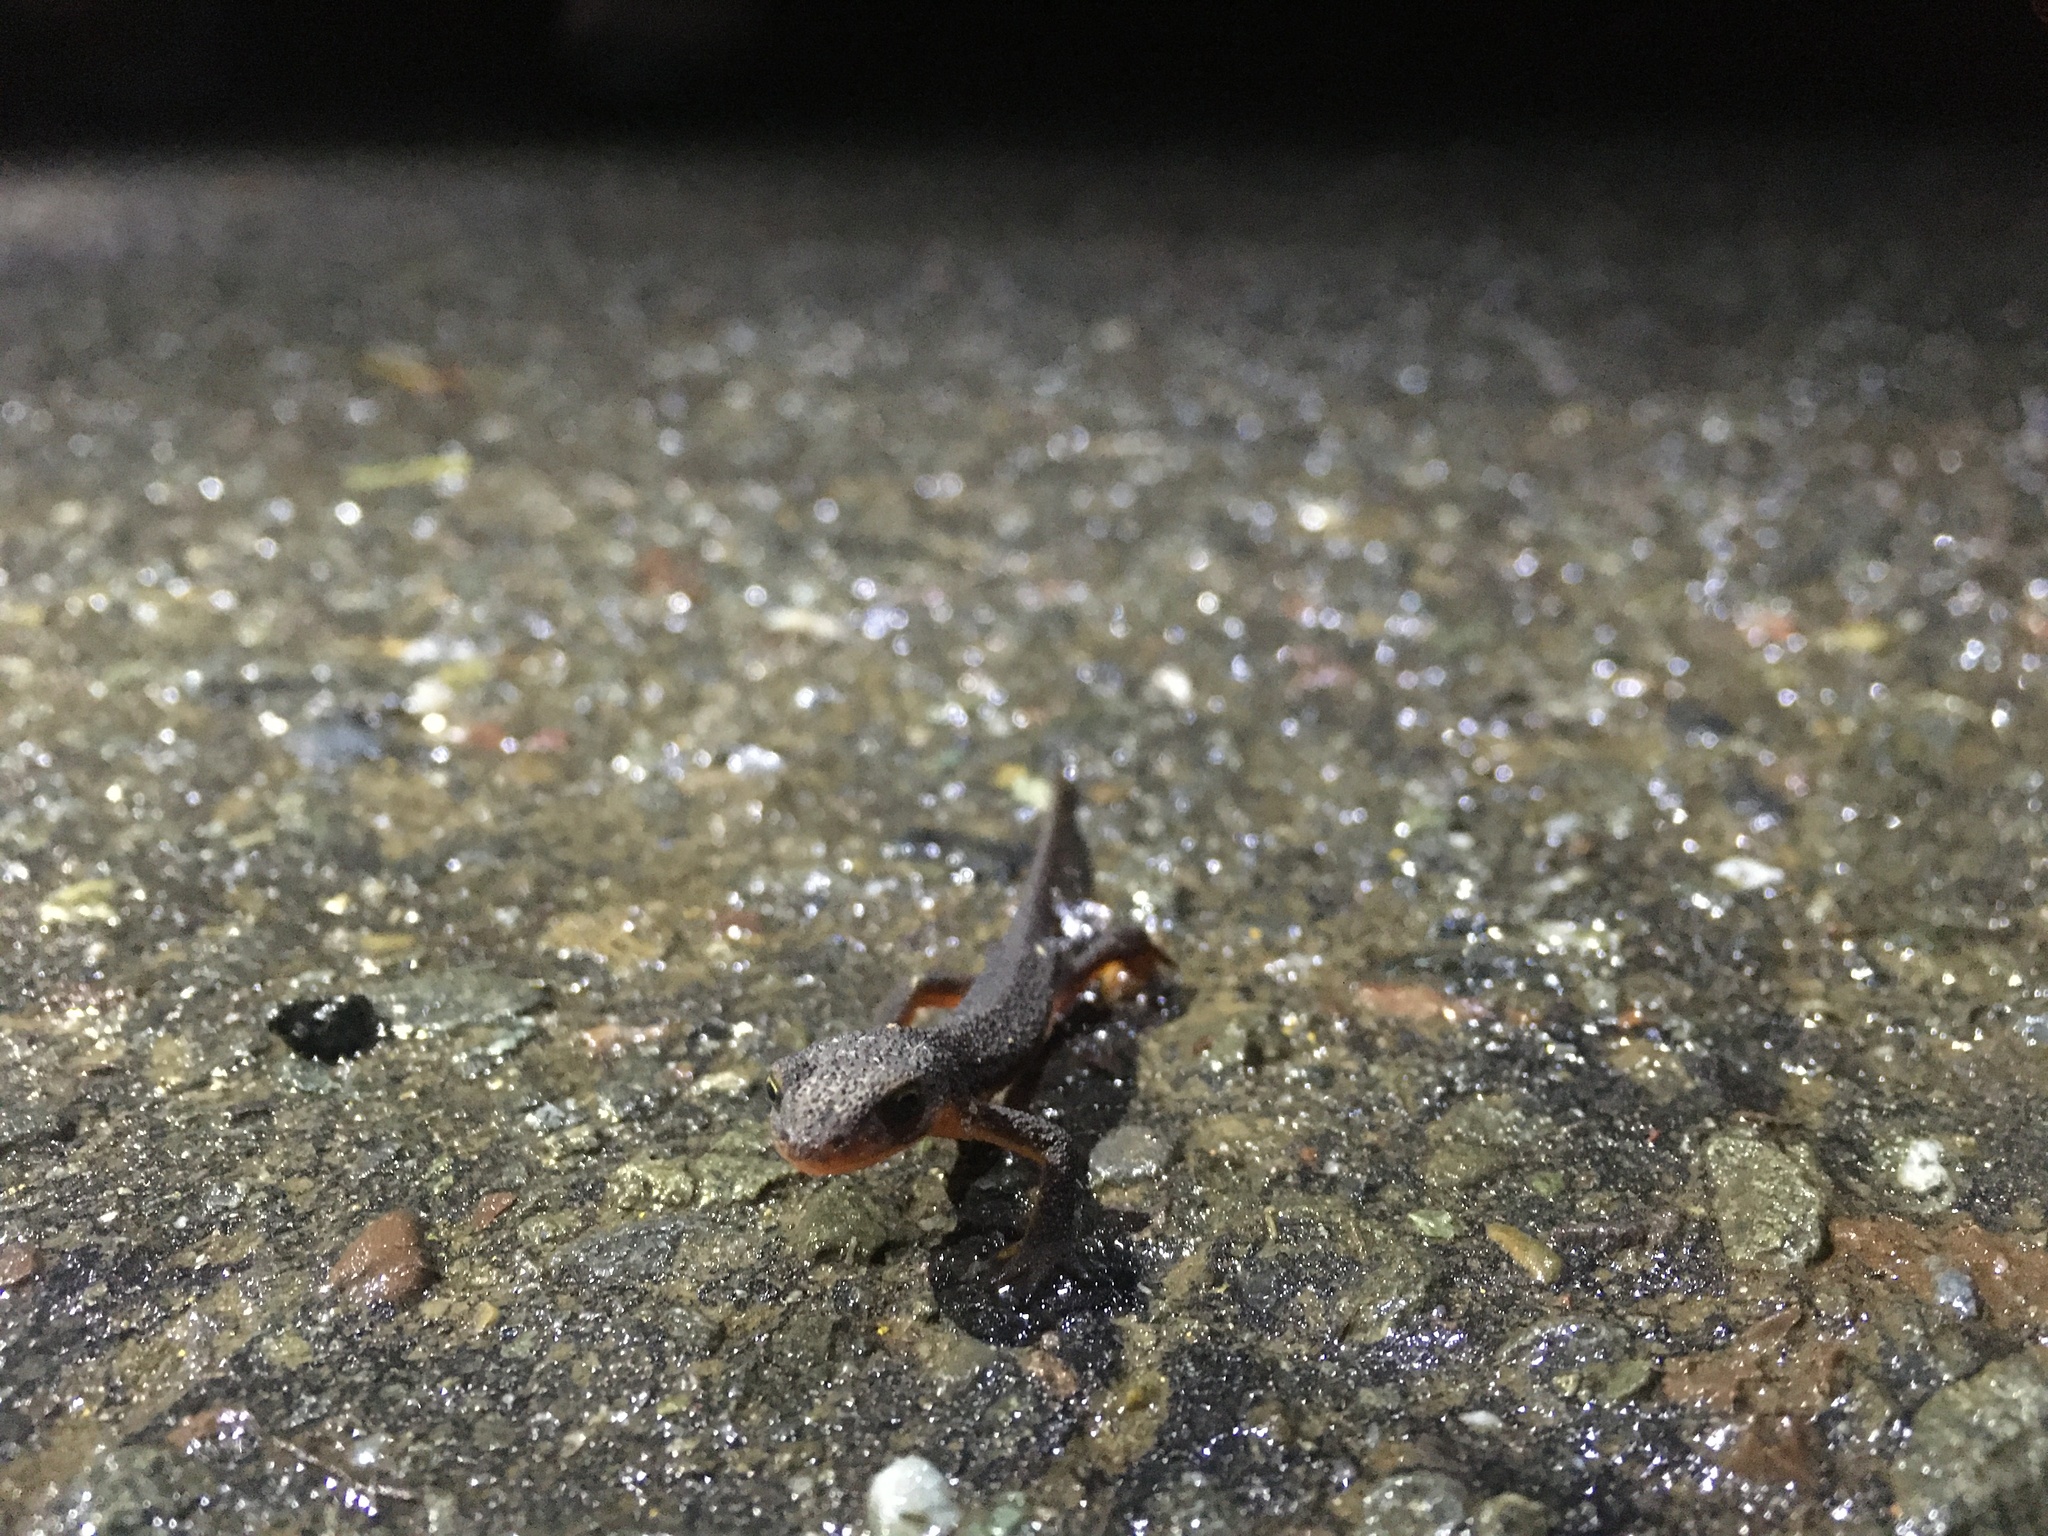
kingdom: Animalia
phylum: Chordata
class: Amphibia
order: Caudata
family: Salamandridae
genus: Taricha
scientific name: Taricha granulosa
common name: Roughskin newt
